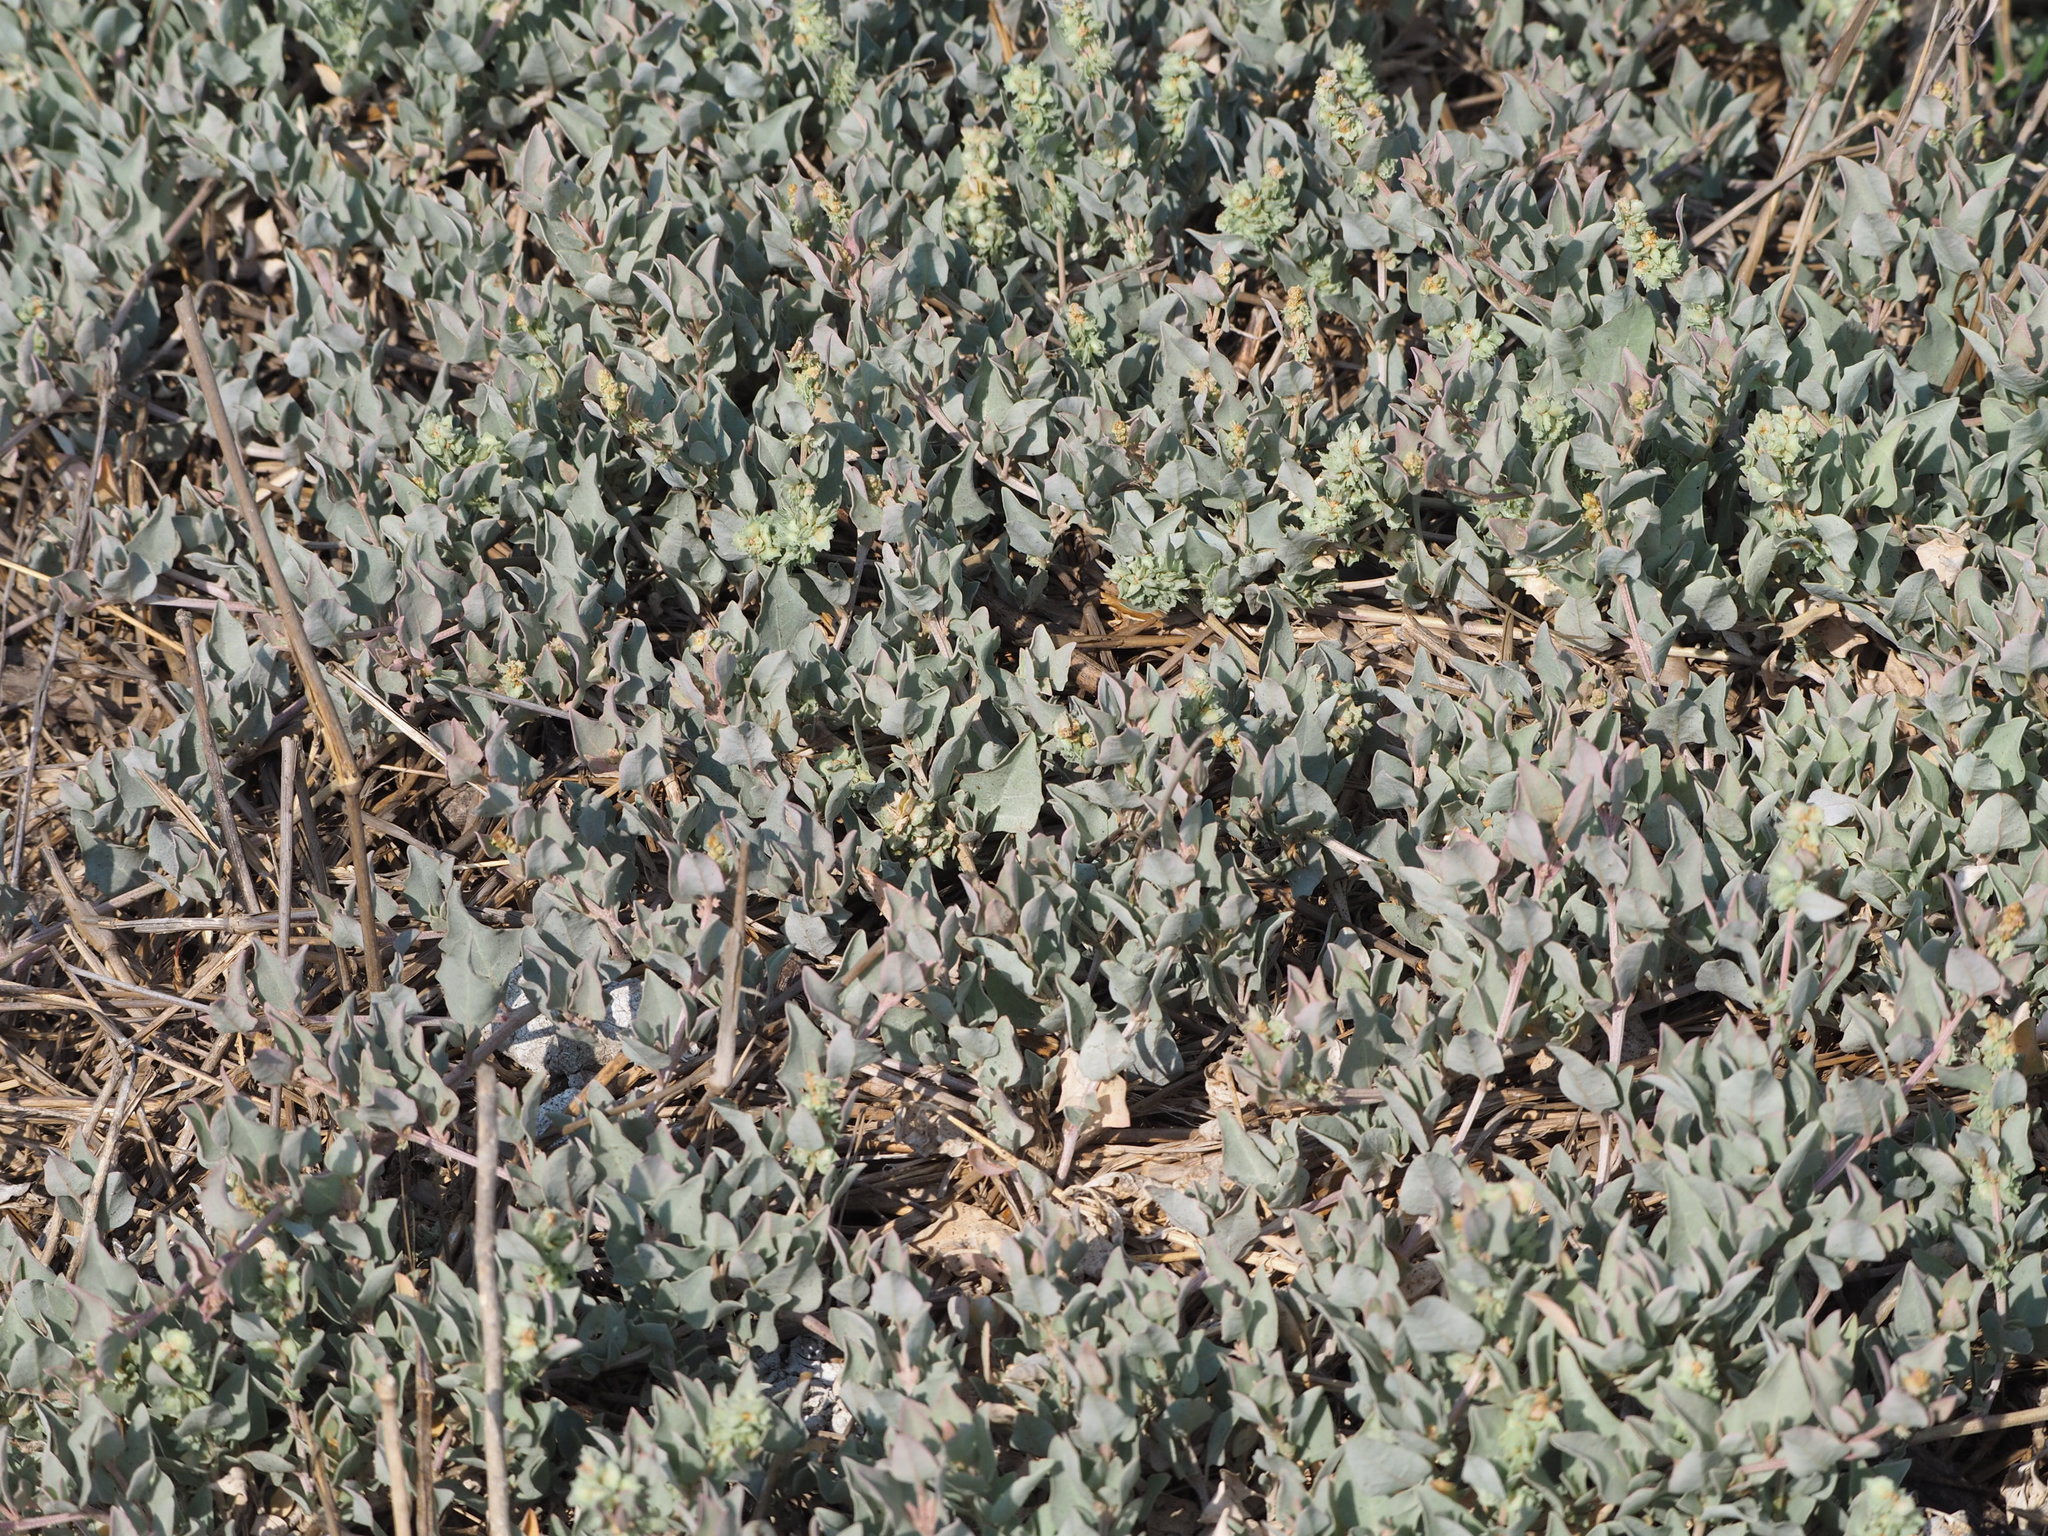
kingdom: Plantae
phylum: Tracheophyta
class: Magnoliopsida
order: Caryophyllales
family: Amaranthaceae
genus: Atriplex
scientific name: Atriplex maximowicziana
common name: Maximowicz's saltbush
